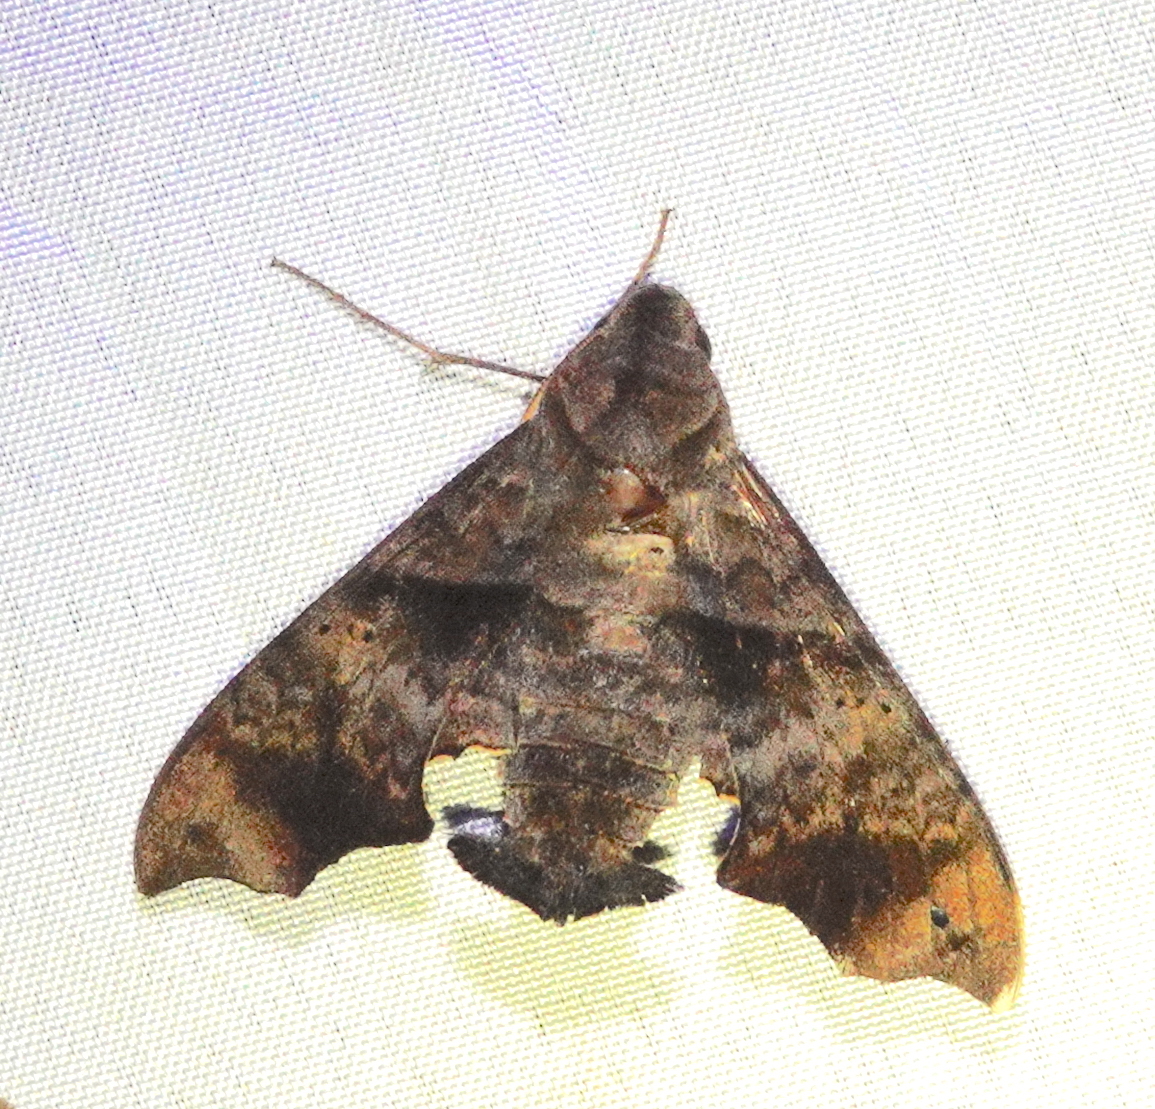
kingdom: Animalia
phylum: Arthropoda
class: Insecta
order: Lepidoptera
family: Sphingidae
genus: Perigonia
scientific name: Perigonia stulta
